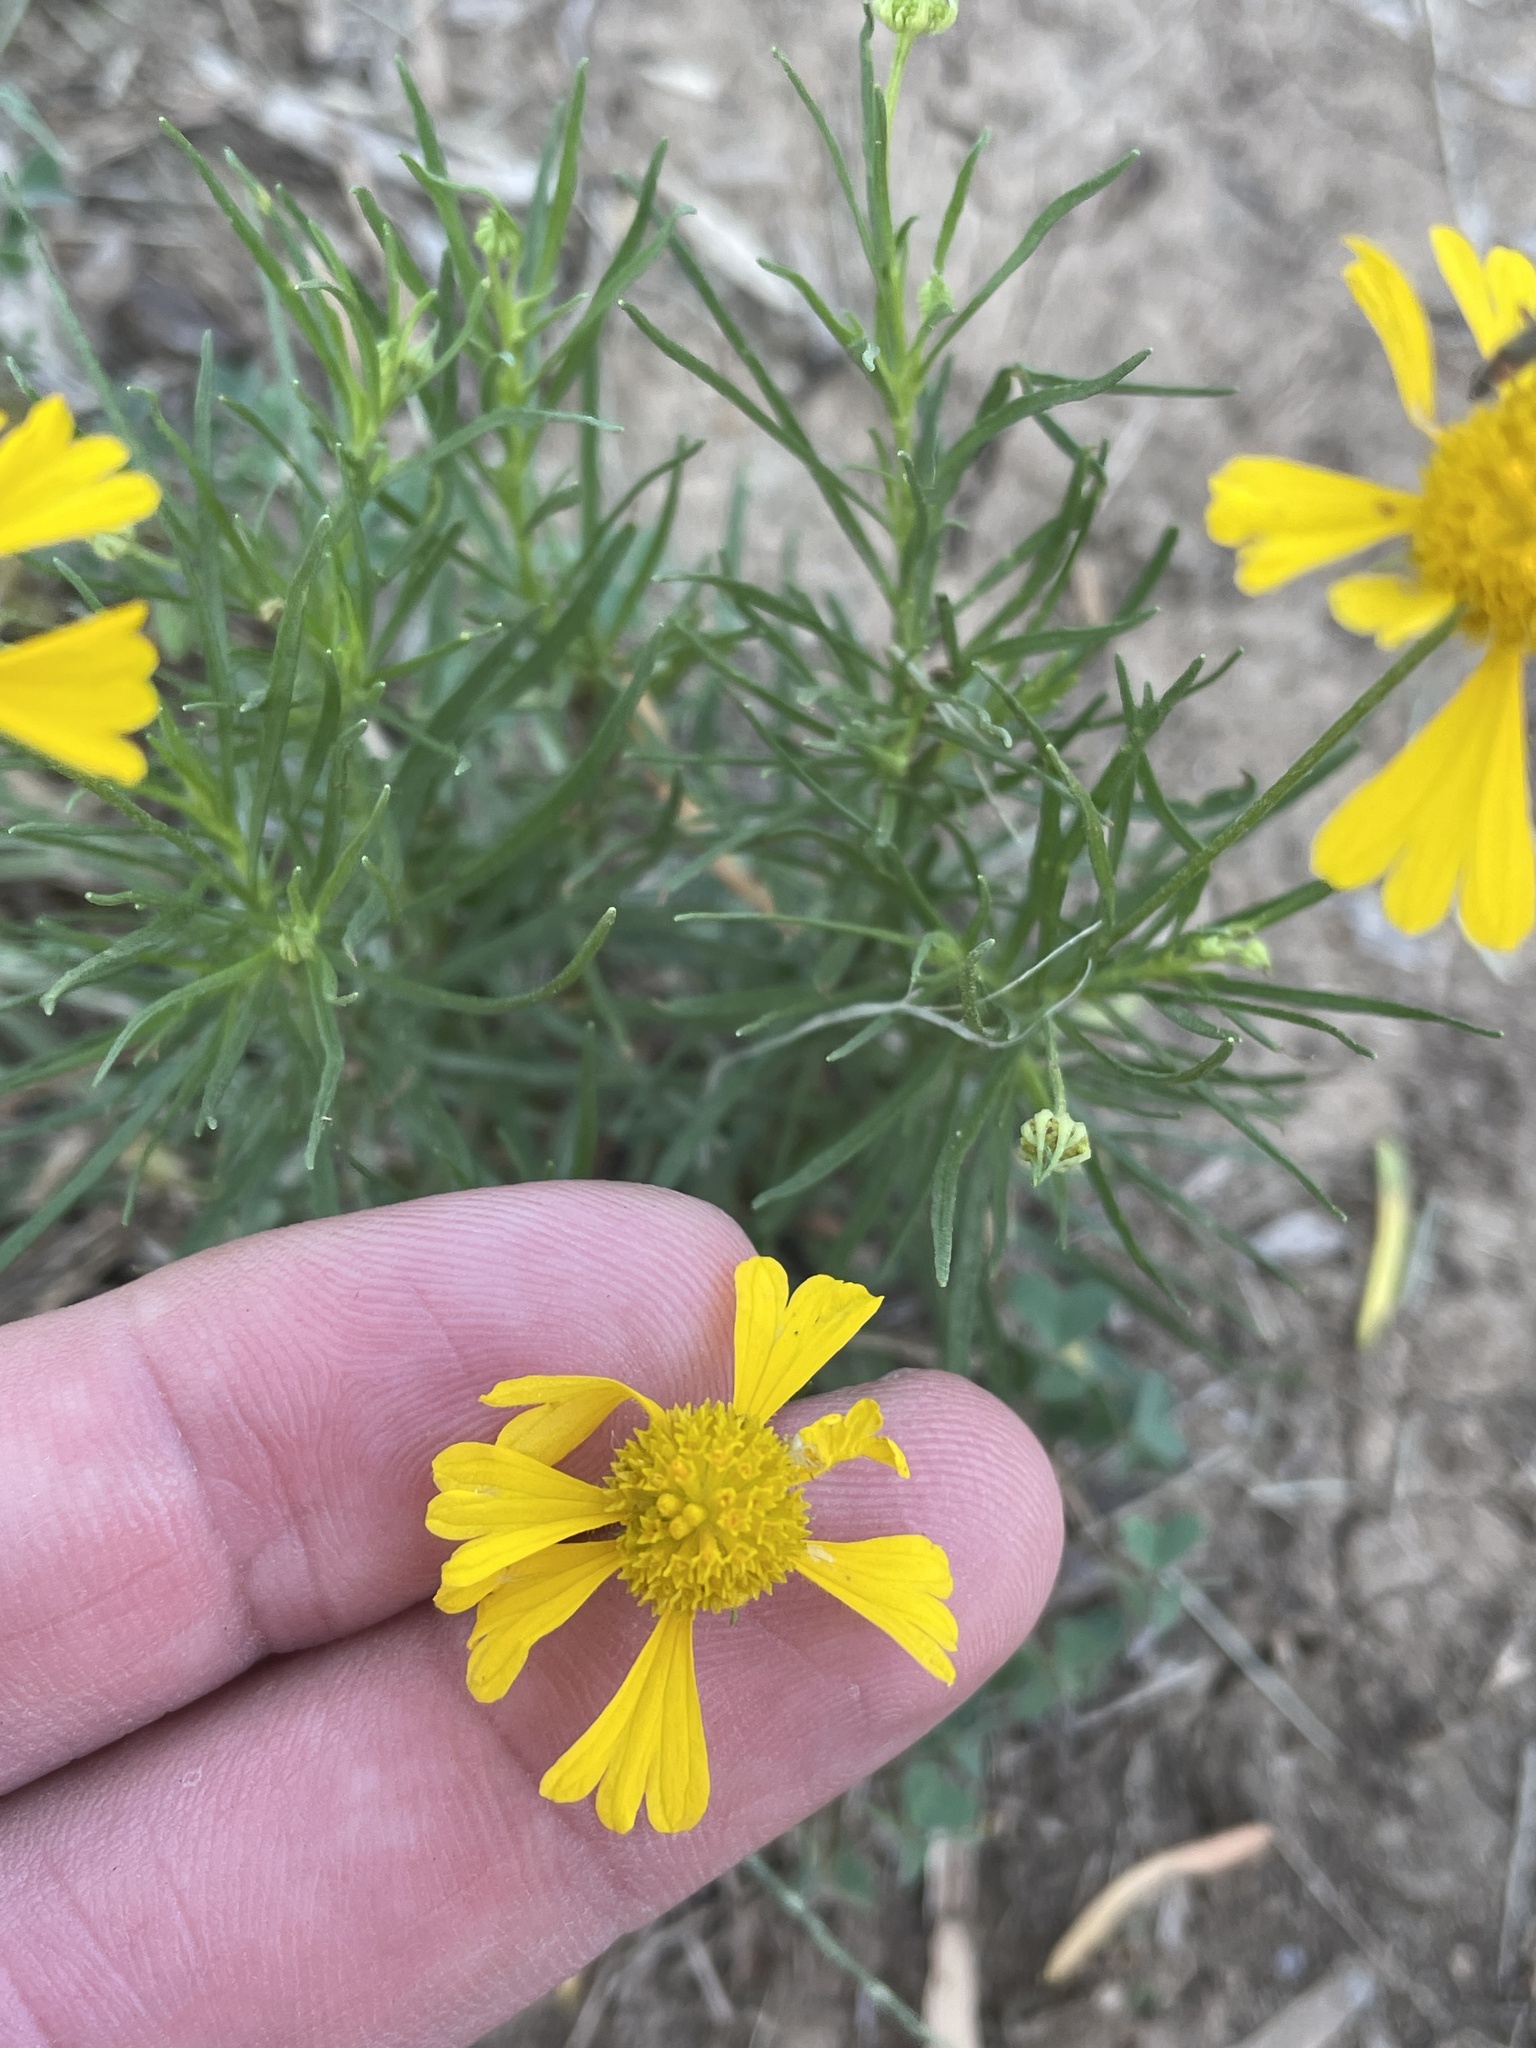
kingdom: Plantae
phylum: Tracheophyta
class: Magnoliopsida
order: Asterales
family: Asteraceae
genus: Helenium
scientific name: Helenium amarum
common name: Bitter sneezeweed
